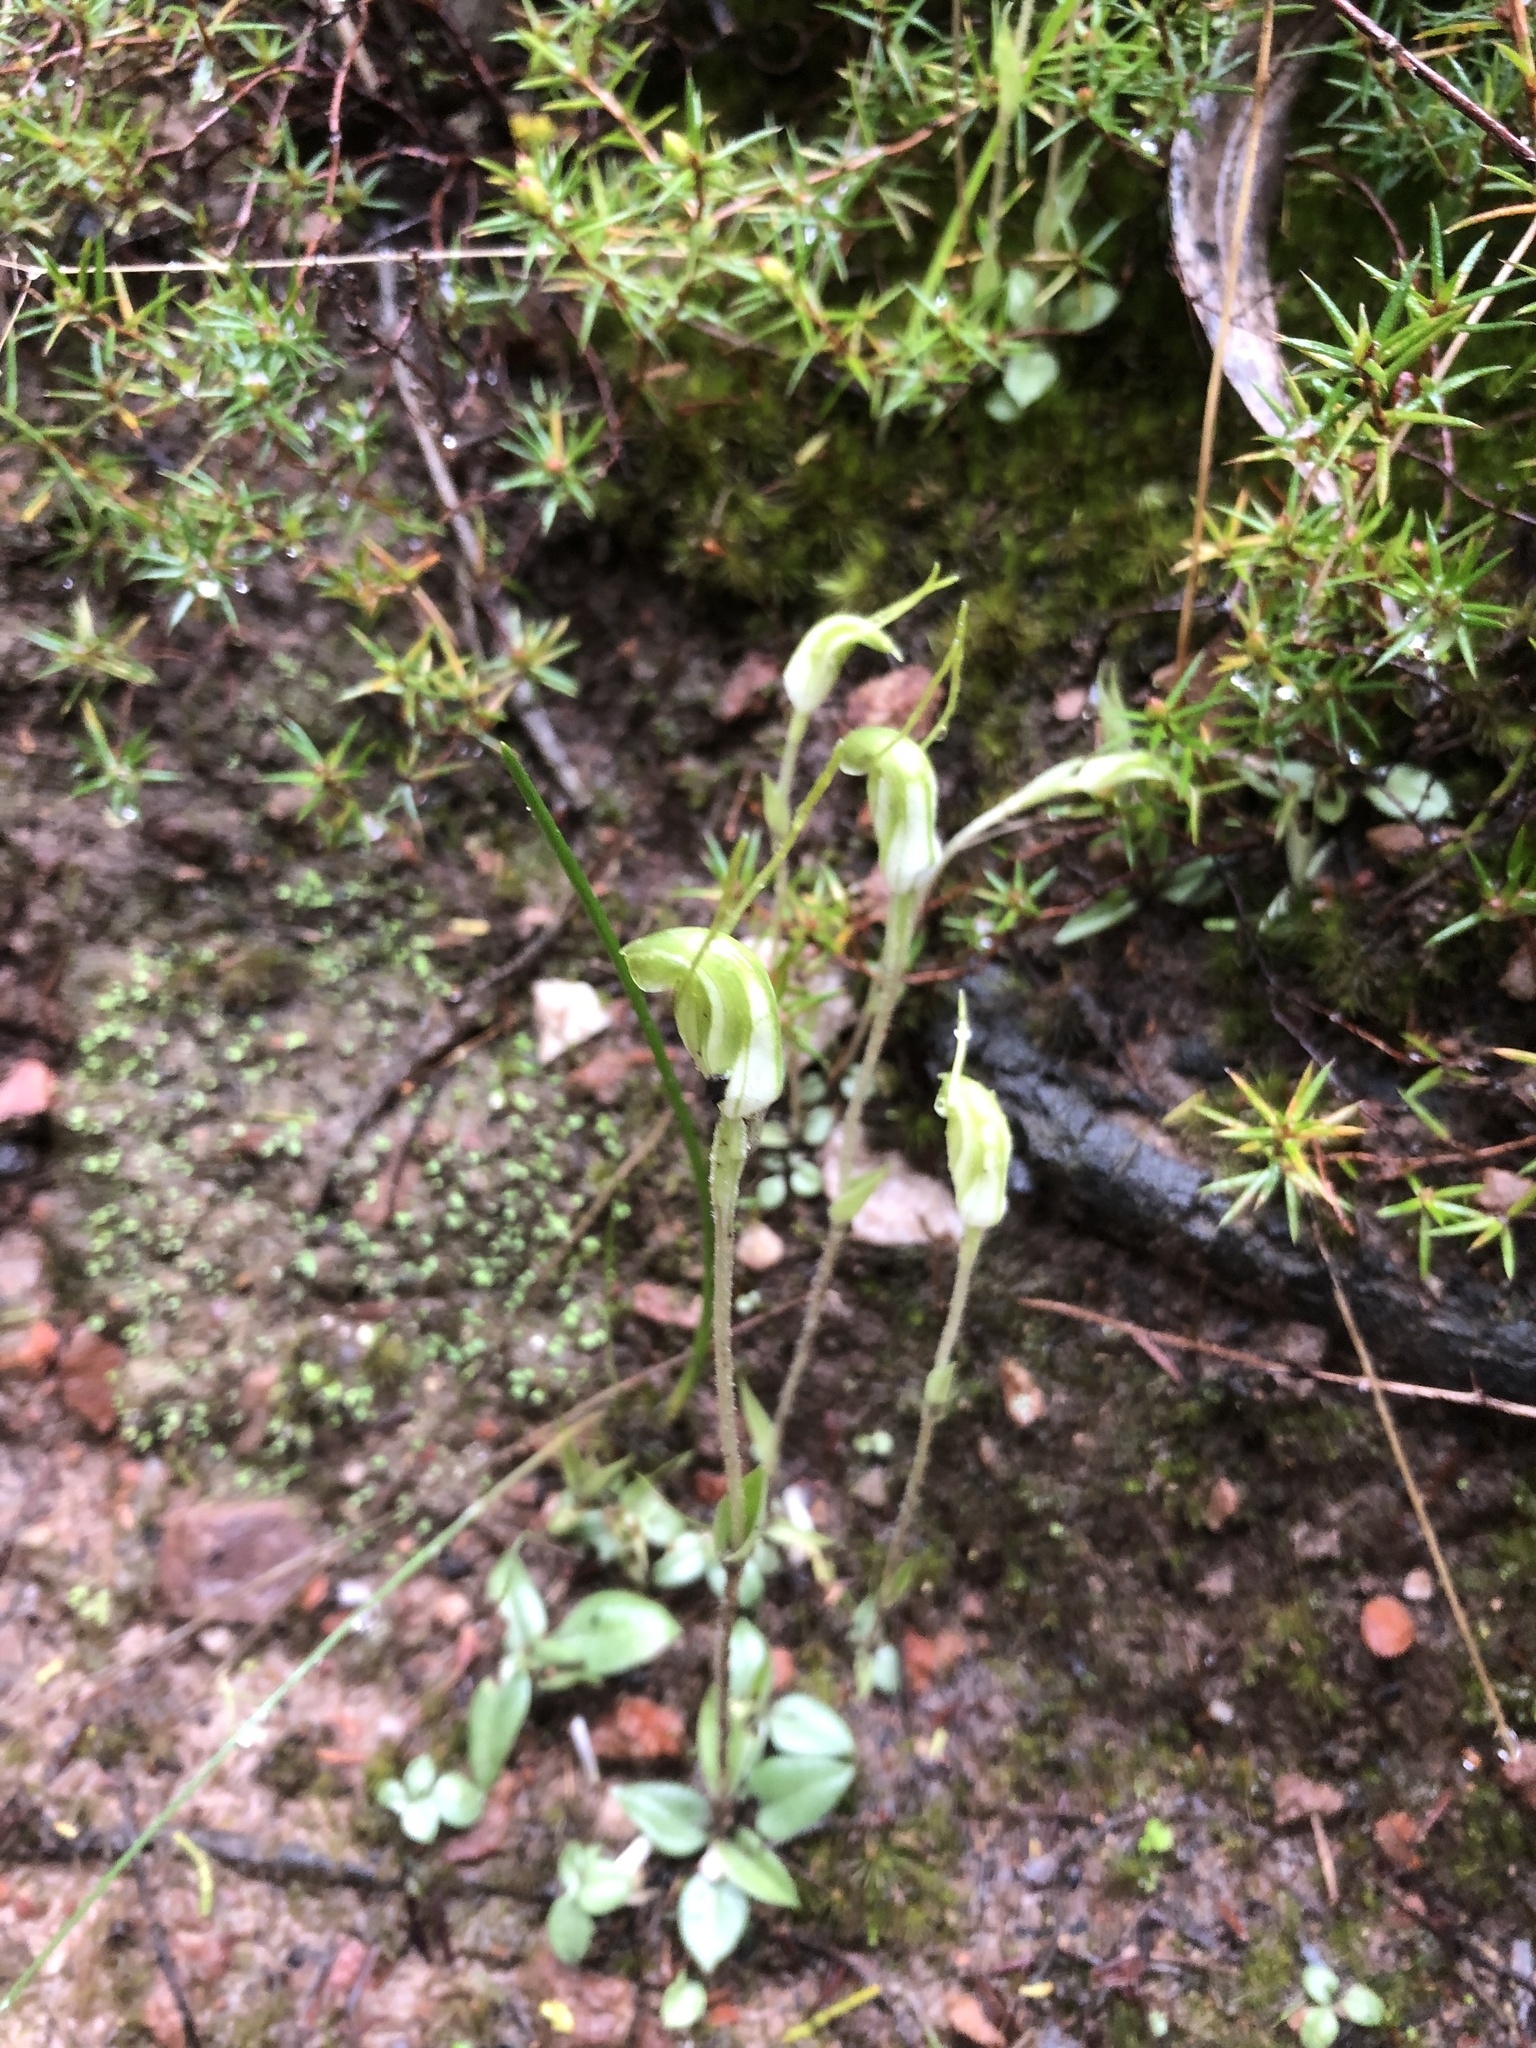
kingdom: Plantae
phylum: Tracheophyta
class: Liliopsida
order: Asparagales
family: Orchidaceae
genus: Pterostylis
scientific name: Pterostylis nana
